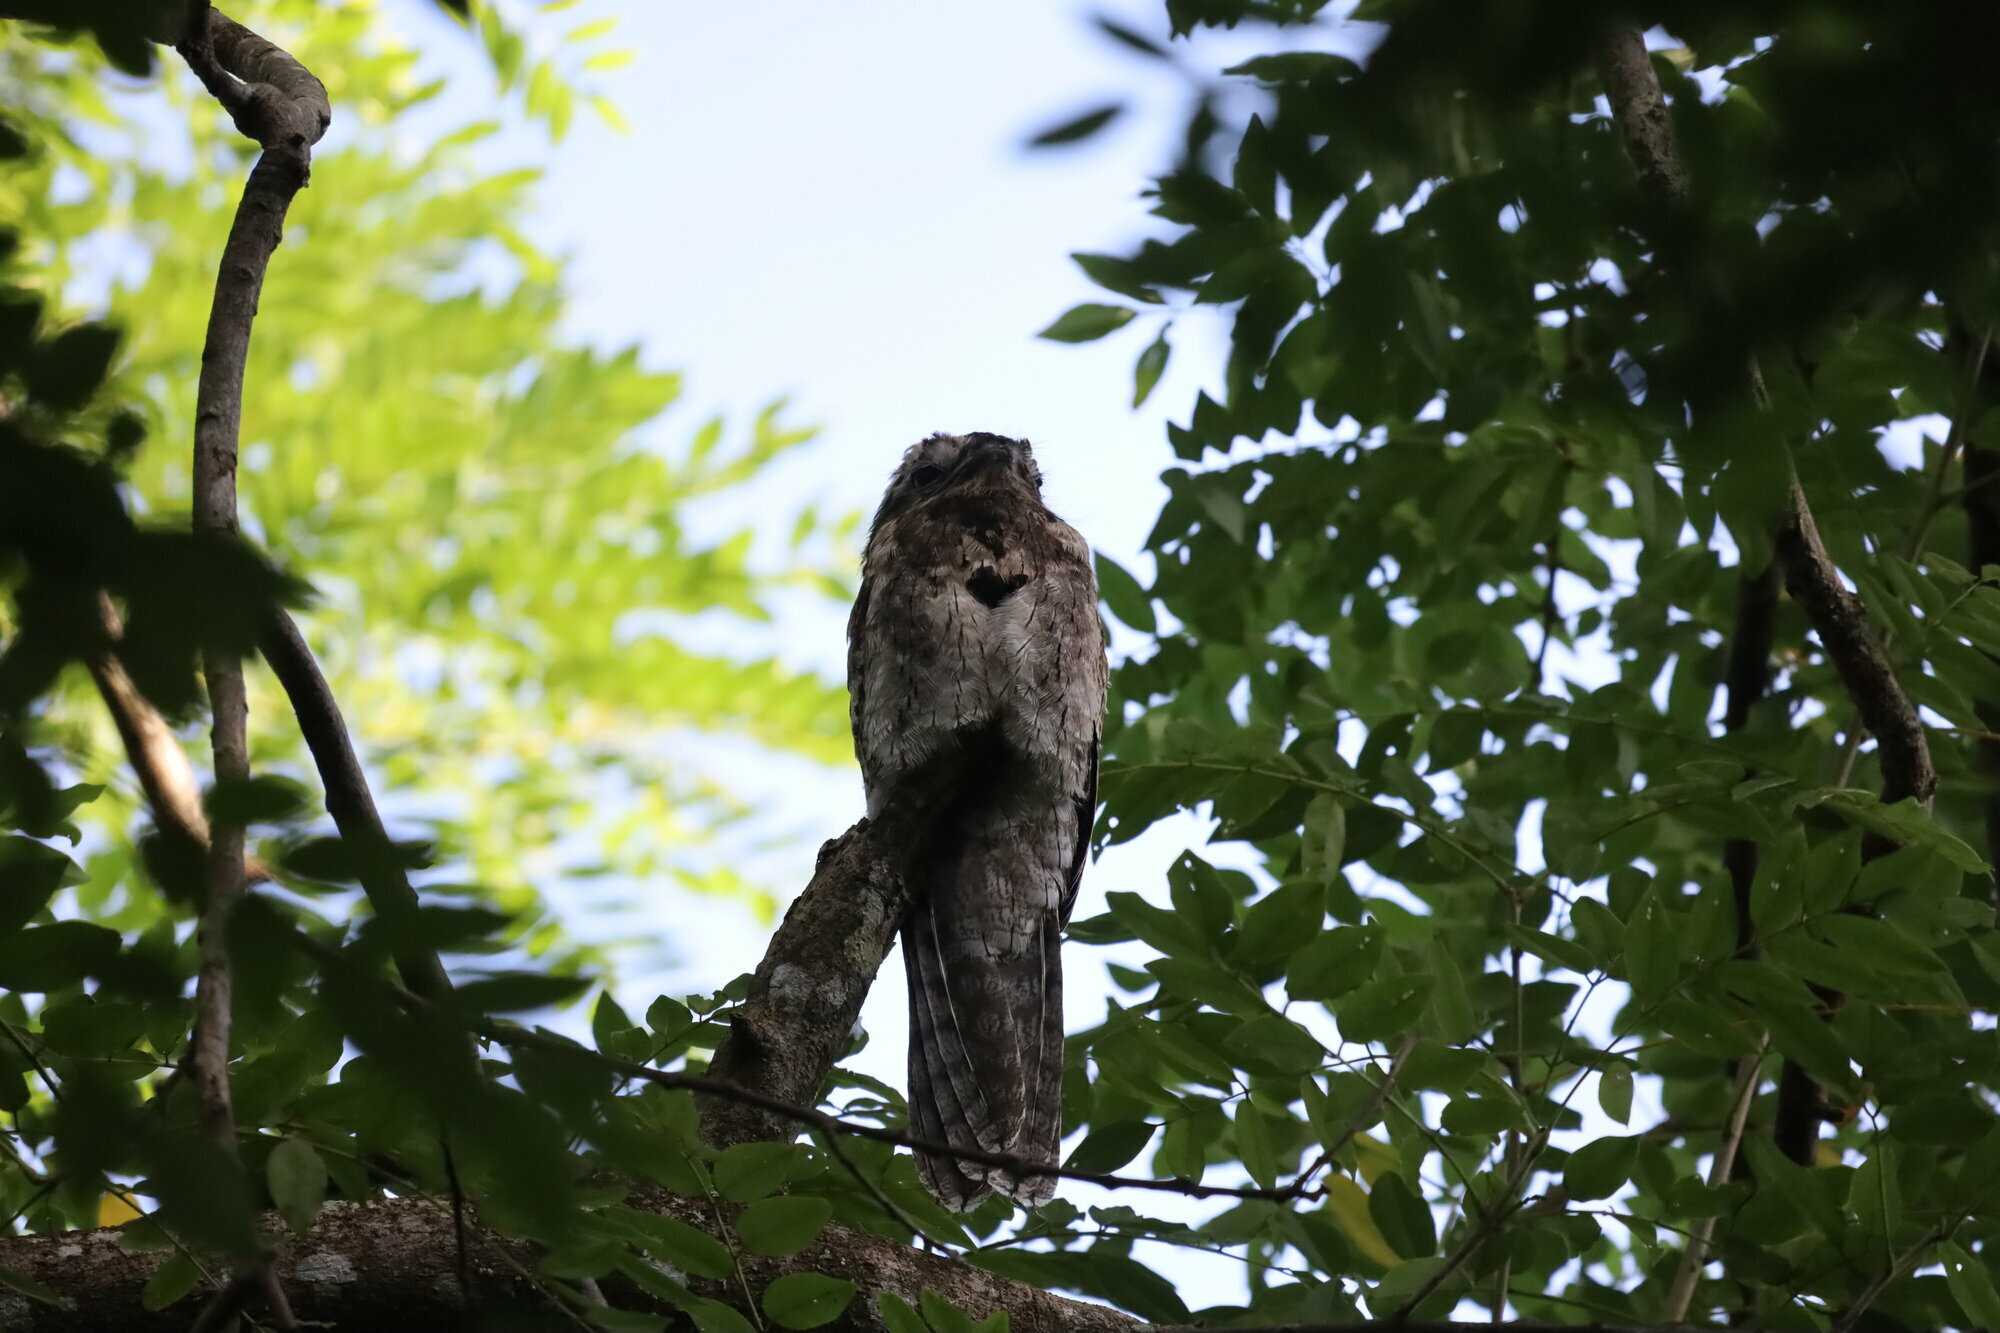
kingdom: Animalia
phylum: Chordata
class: Aves
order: Nyctibiiformes
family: Nyctibiidae
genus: Nyctibius
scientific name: Nyctibius griseus
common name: Common potoo
